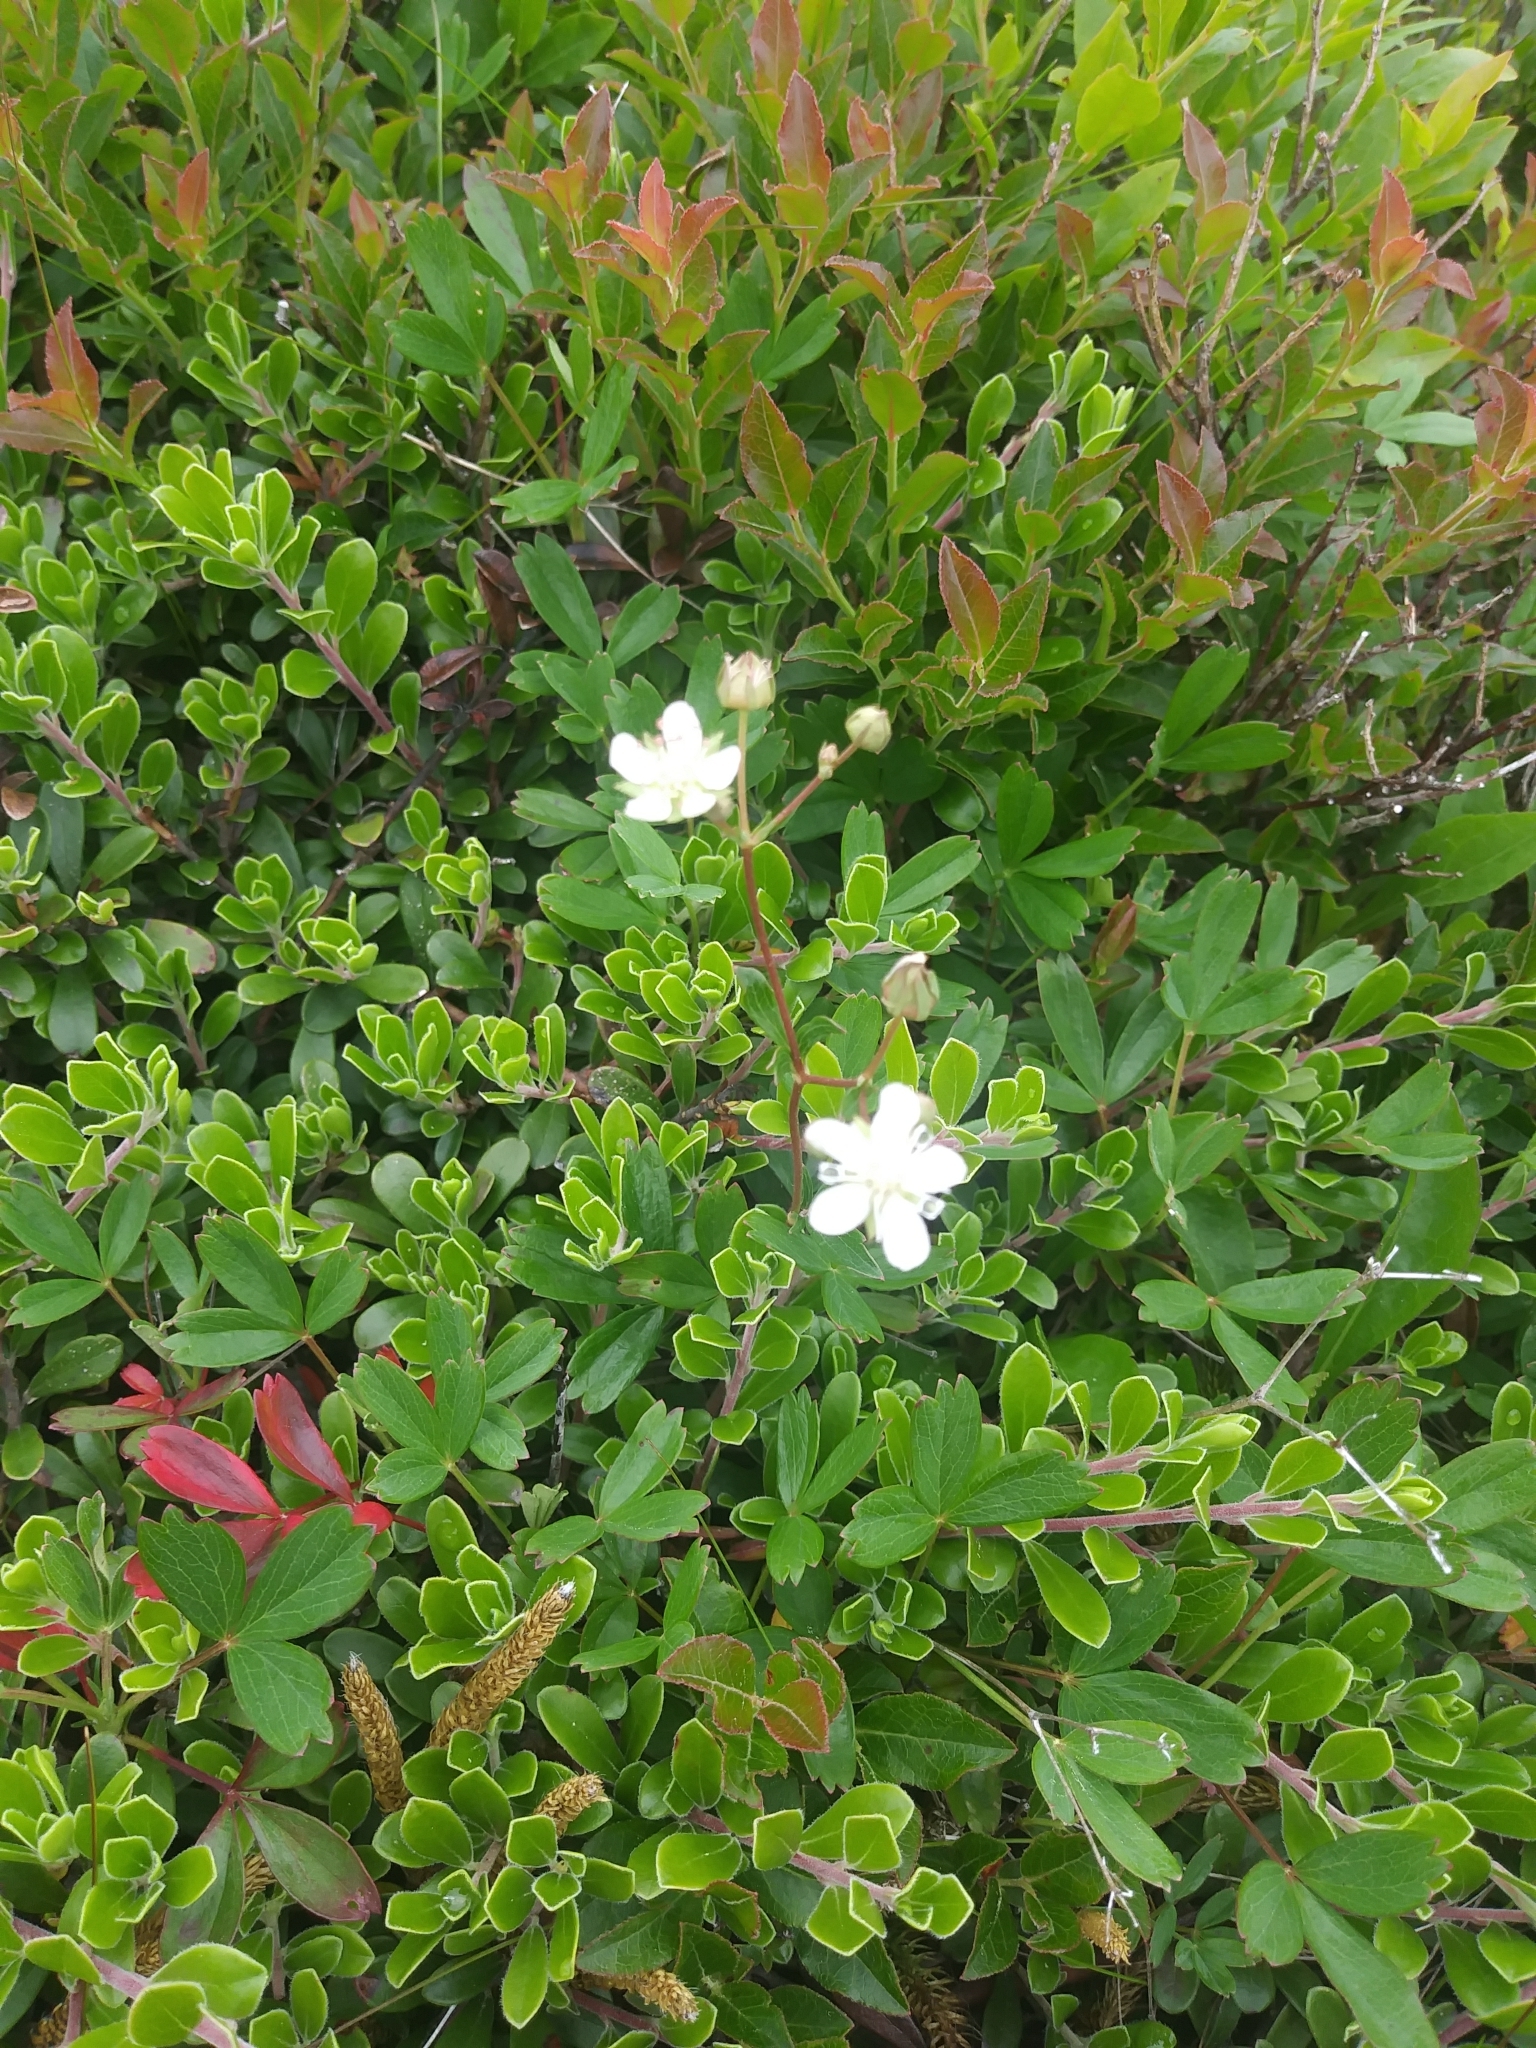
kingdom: Plantae
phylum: Tracheophyta
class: Magnoliopsida
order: Rosales
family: Rosaceae
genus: Sibbaldia
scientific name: Sibbaldia tridentata
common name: Three-toothed cinquefoil
